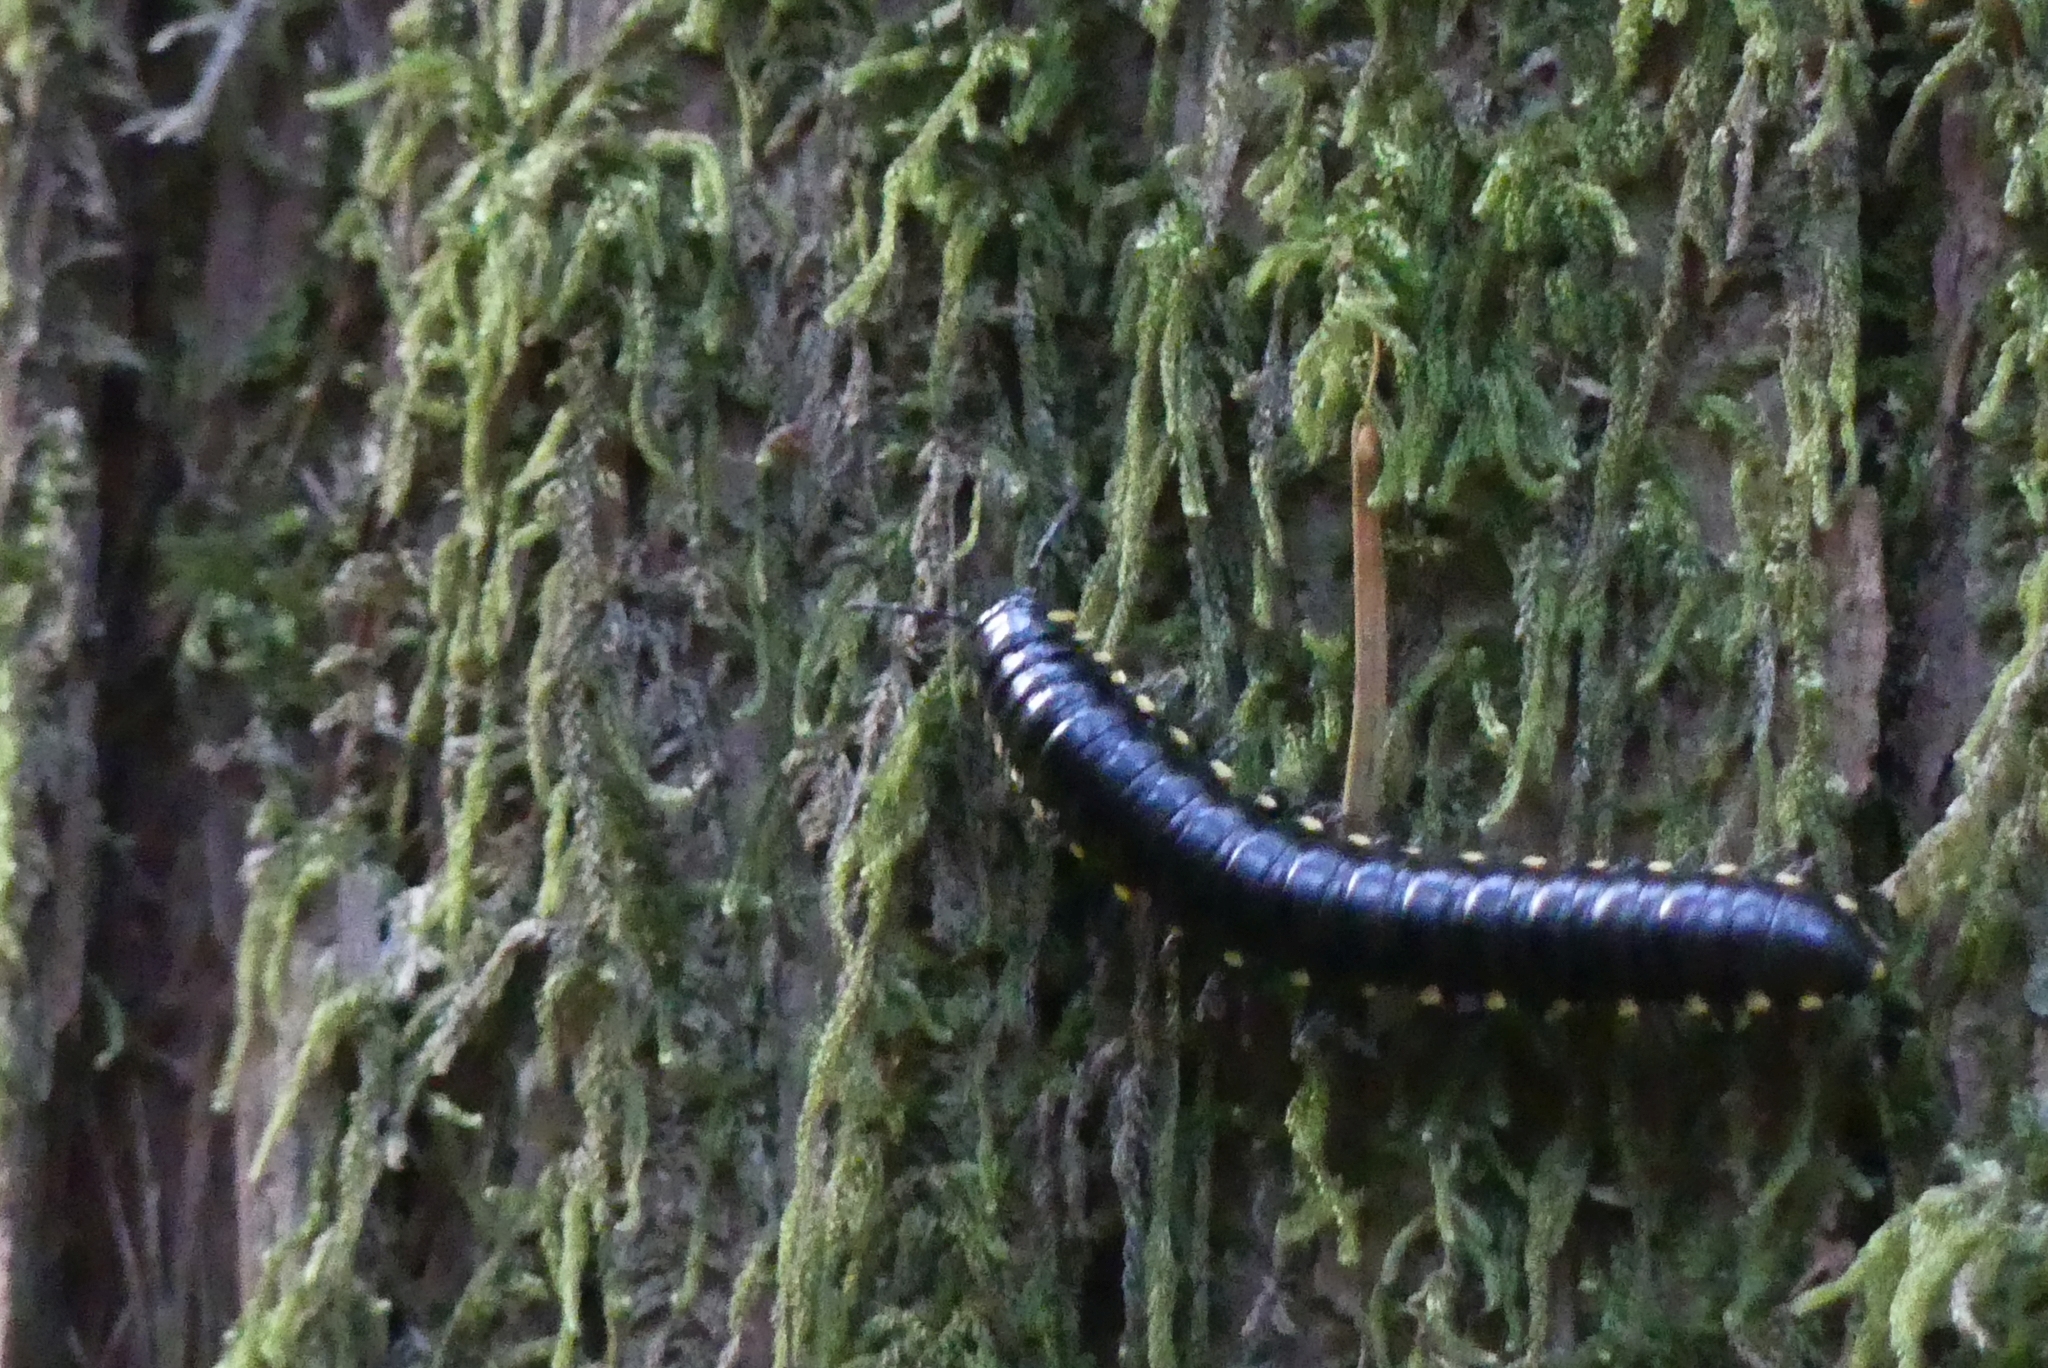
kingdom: Animalia
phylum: Arthropoda
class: Diplopoda
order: Polydesmida
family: Xystodesmidae
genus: Harpaphe
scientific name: Harpaphe haydeniana
